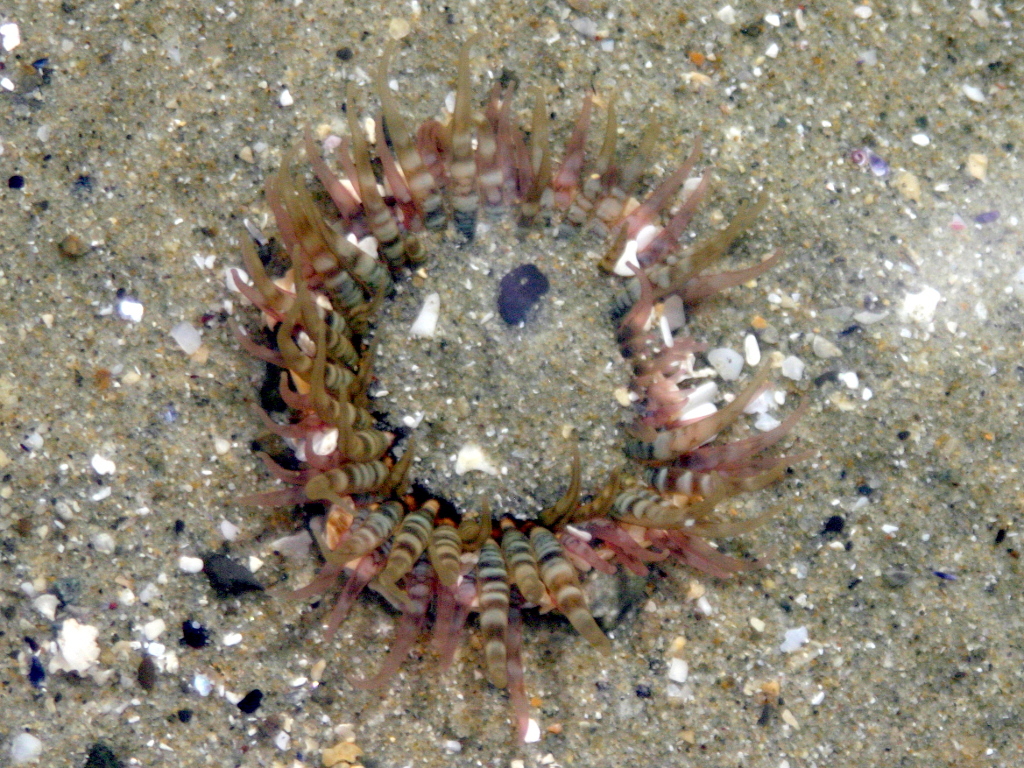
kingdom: Animalia
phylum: Cnidaria
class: Anthozoa
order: Actiniaria
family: Actiniidae
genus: Oulactis
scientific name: Oulactis muscosa
